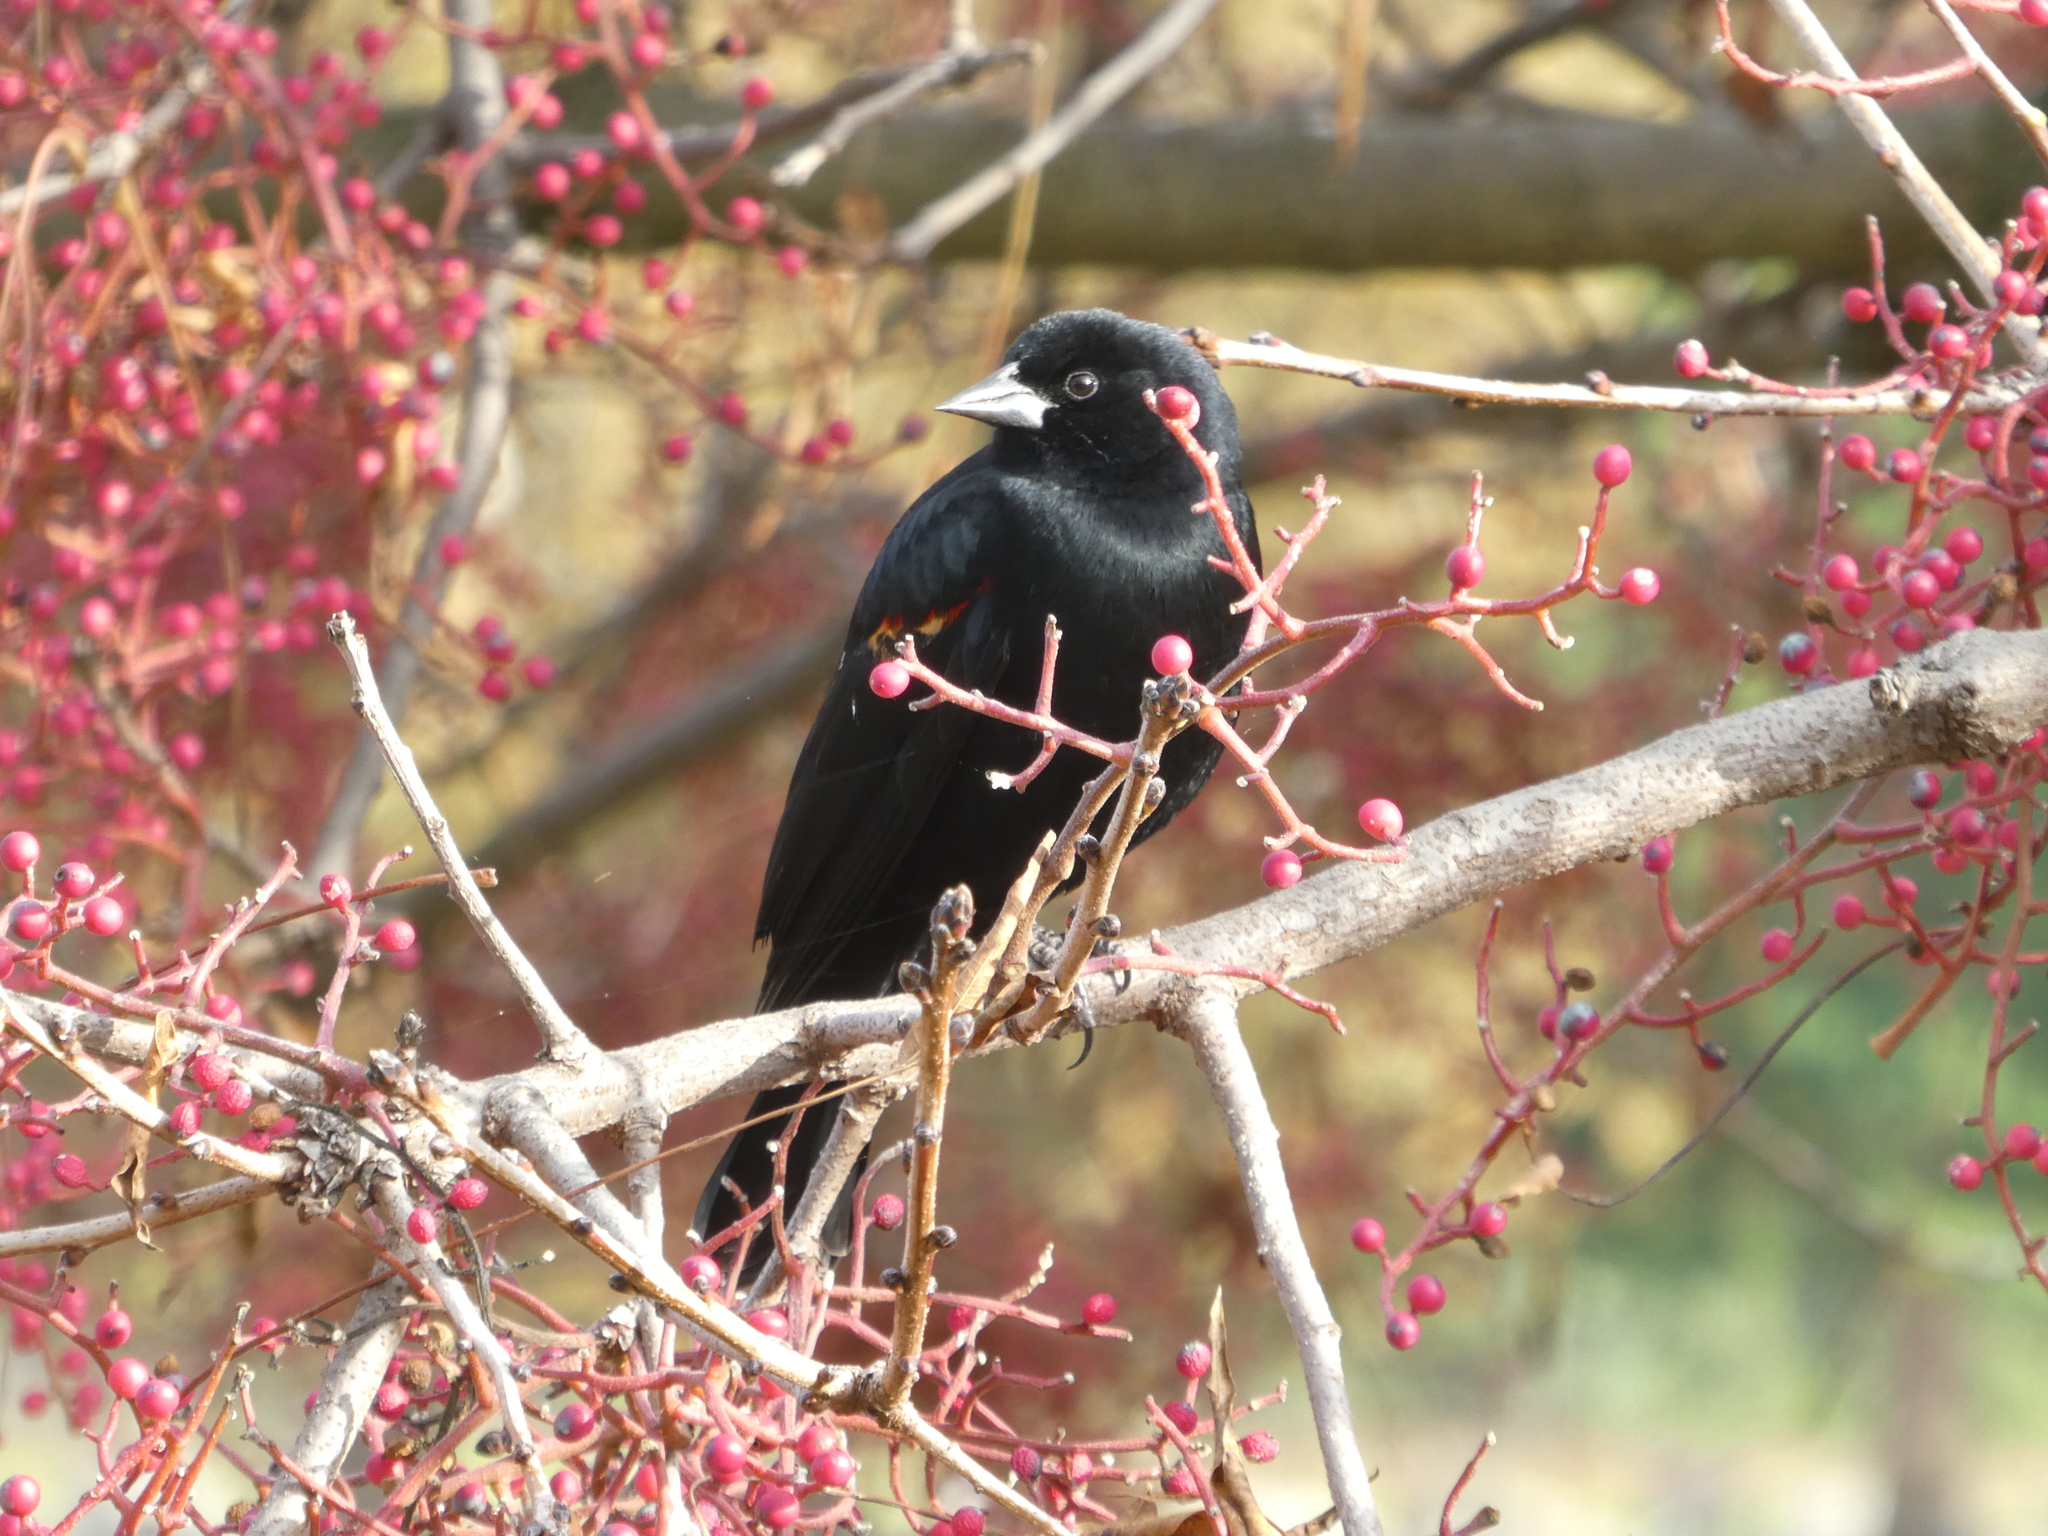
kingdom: Animalia
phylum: Chordata
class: Aves
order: Passeriformes
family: Icteridae
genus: Agelaius
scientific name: Agelaius phoeniceus
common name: Red-winged blackbird
